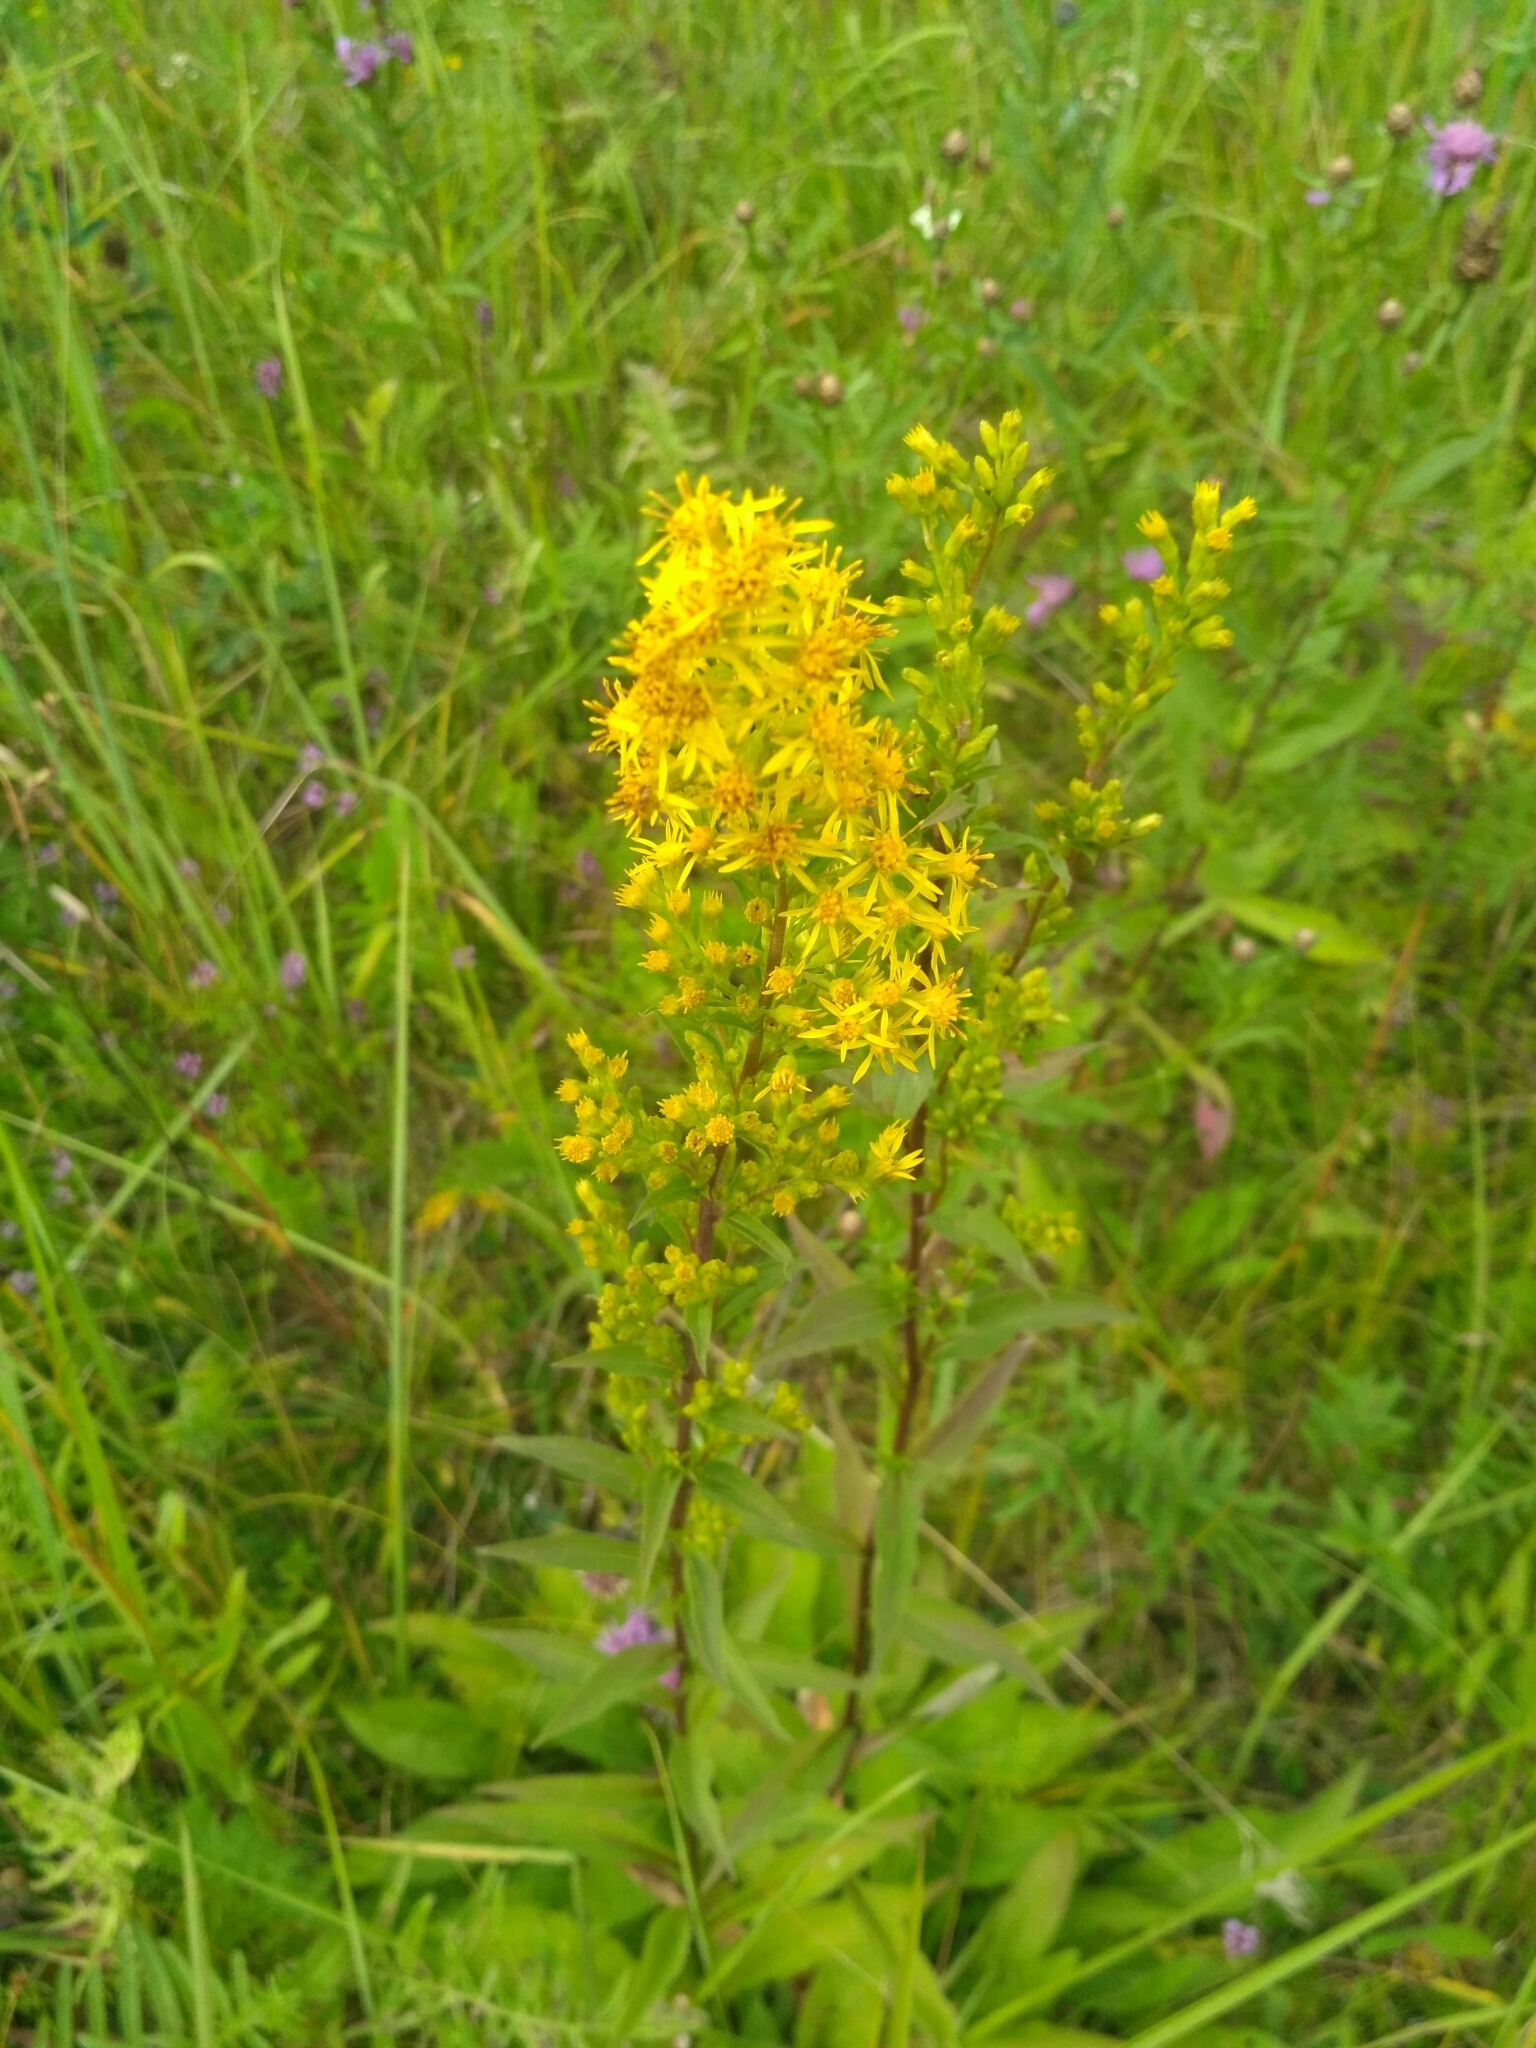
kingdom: Plantae
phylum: Tracheophyta
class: Magnoliopsida
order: Asterales
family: Asteraceae
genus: Solidago
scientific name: Solidago virgaurea
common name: Goldenrod
